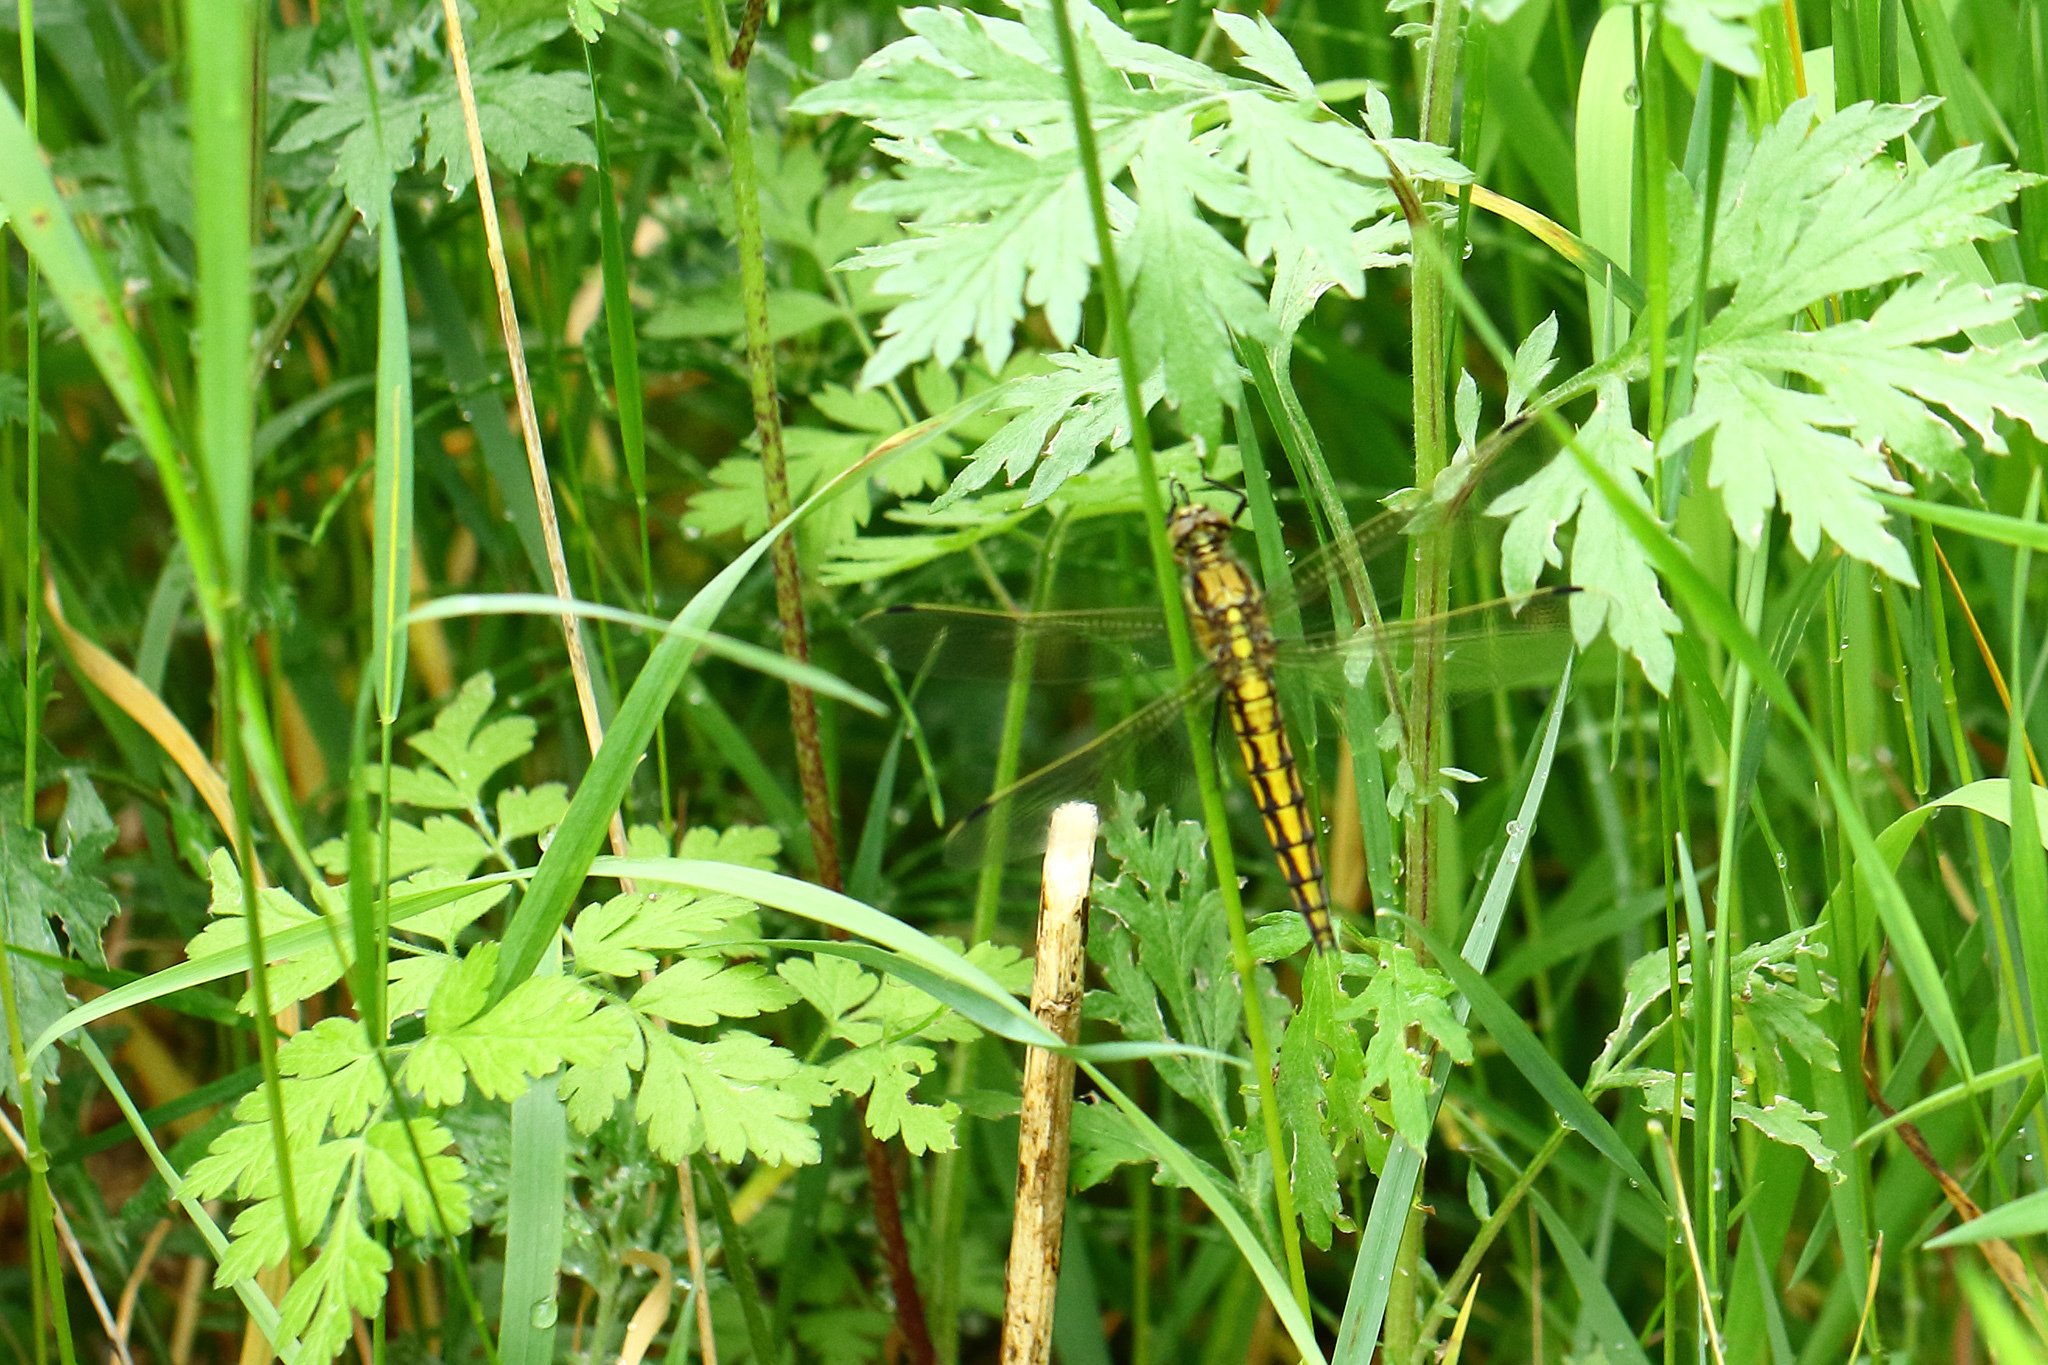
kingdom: Animalia
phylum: Arthropoda
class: Insecta
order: Odonata
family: Libellulidae
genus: Orthetrum
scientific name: Orthetrum cancellatum
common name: Black-tailed skimmer
